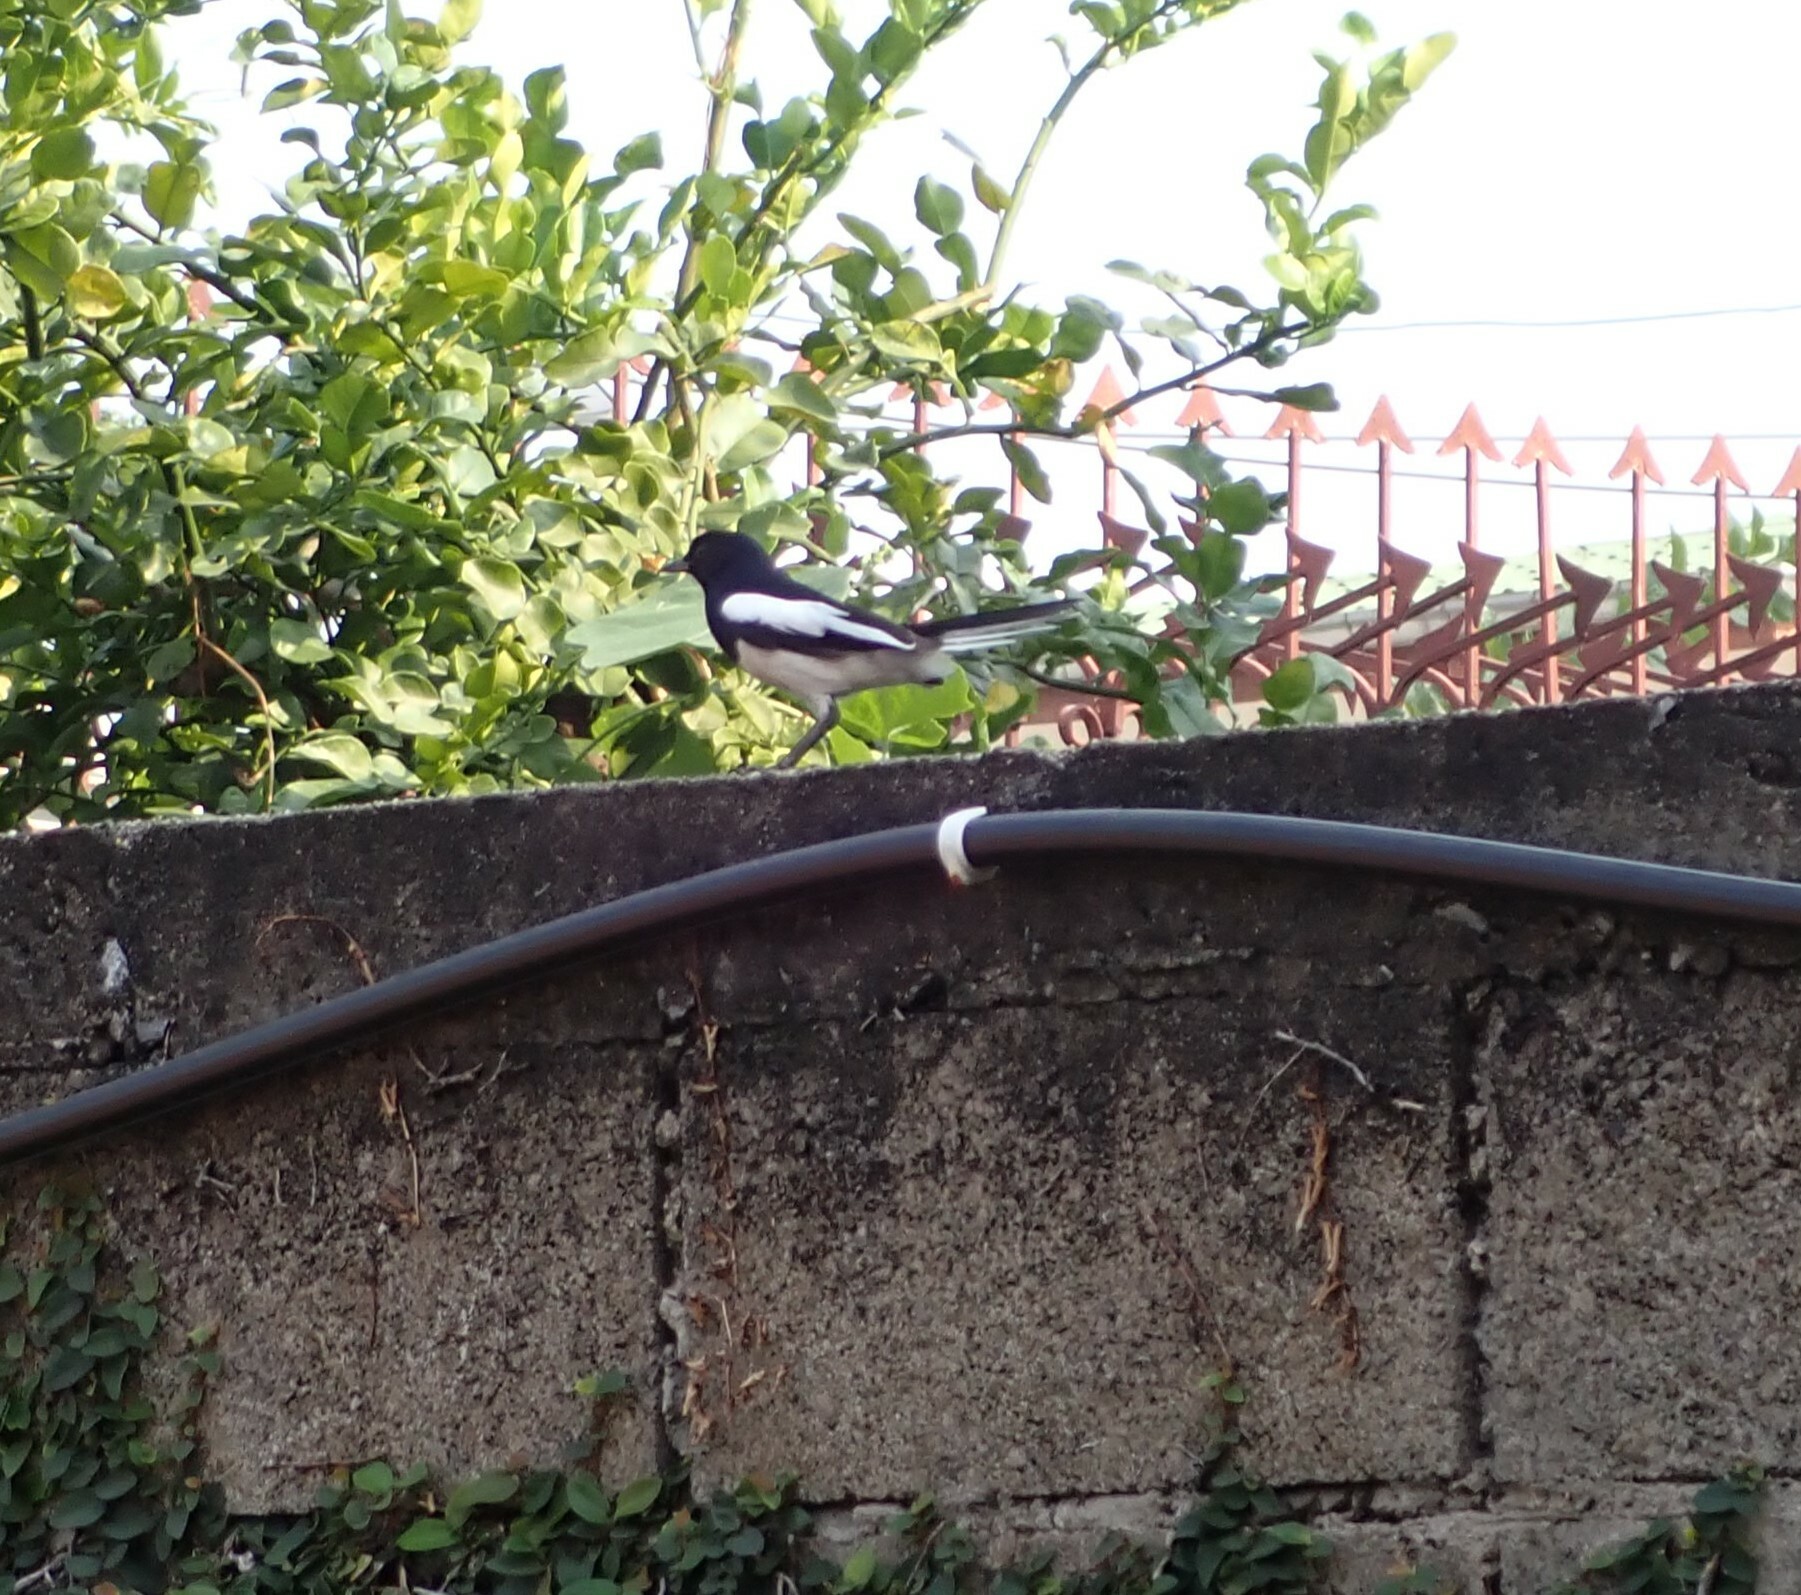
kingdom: Animalia
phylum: Chordata
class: Aves
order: Passeriformes
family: Muscicapidae
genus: Copsychus
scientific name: Copsychus saularis
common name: Oriental magpie-robin
